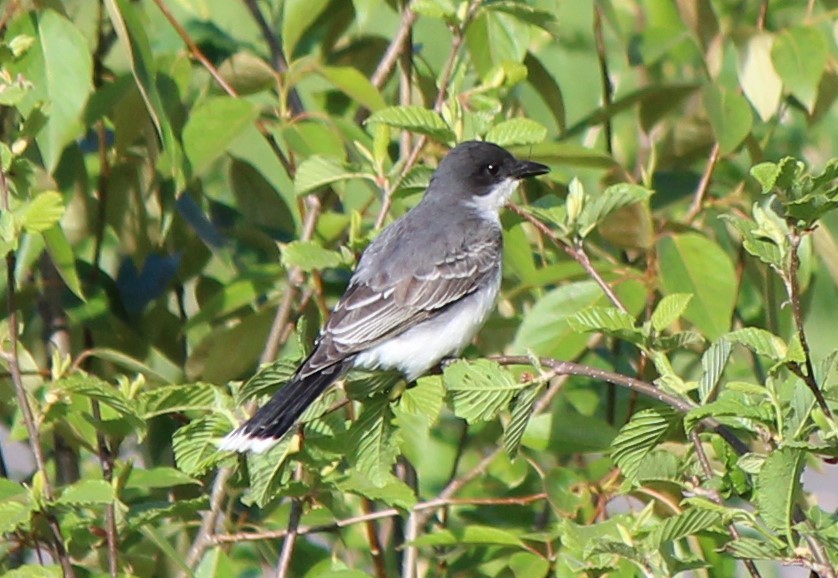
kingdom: Animalia
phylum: Chordata
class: Aves
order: Passeriformes
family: Tyrannidae
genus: Tyrannus
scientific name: Tyrannus tyrannus
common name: Eastern kingbird
